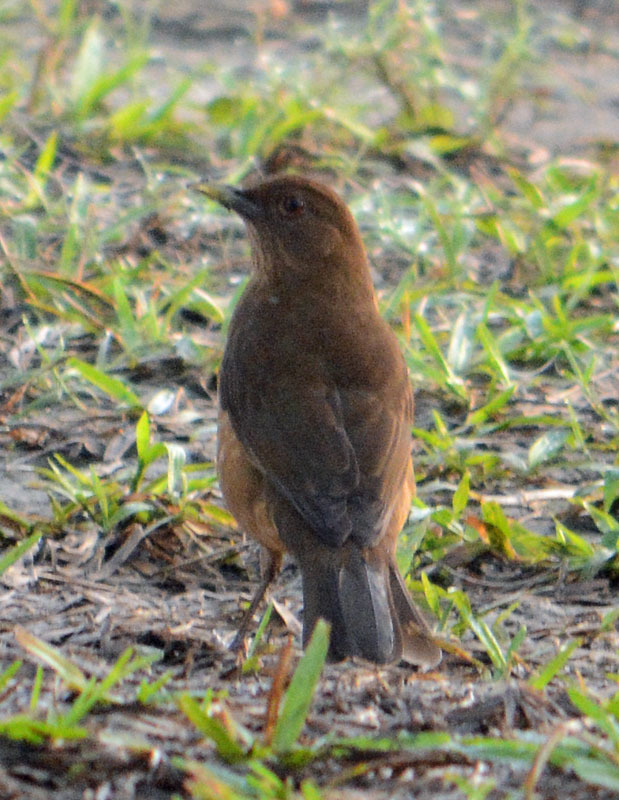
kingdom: Animalia
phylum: Chordata
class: Aves
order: Passeriformes
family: Turdidae
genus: Turdus
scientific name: Turdus grayi
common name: Clay-colored thrush
